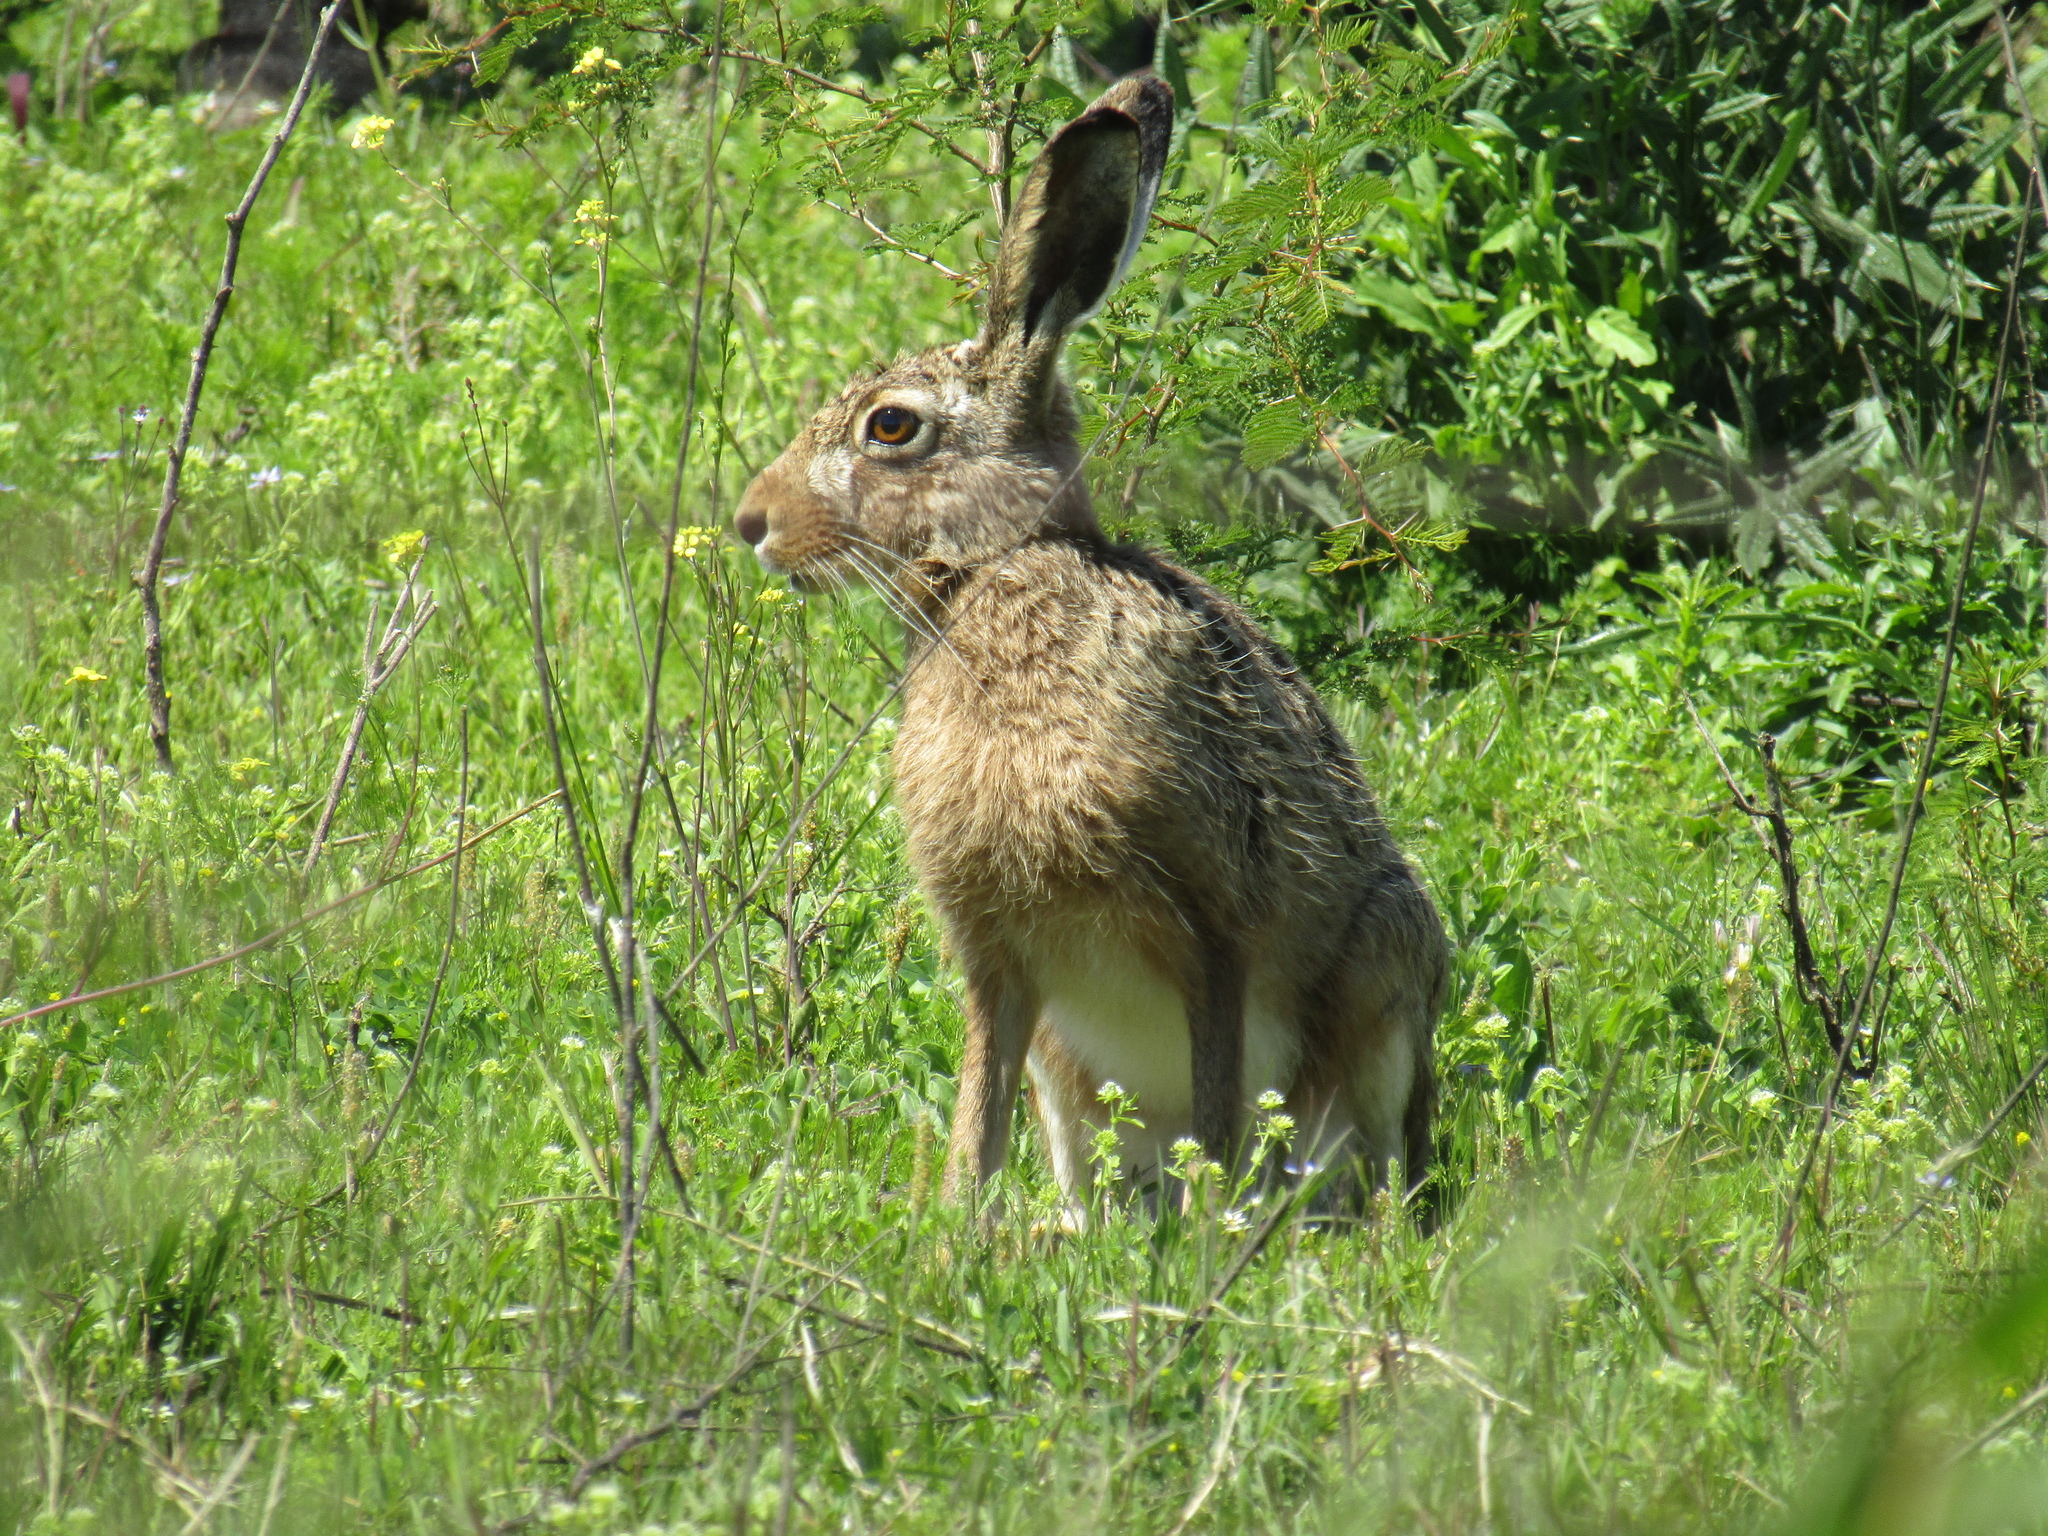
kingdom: Animalia
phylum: Chordata
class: Mammalia
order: Lagomorpha
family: Leporidae
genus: Lepus
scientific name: Lepus europaeus
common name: European hare
